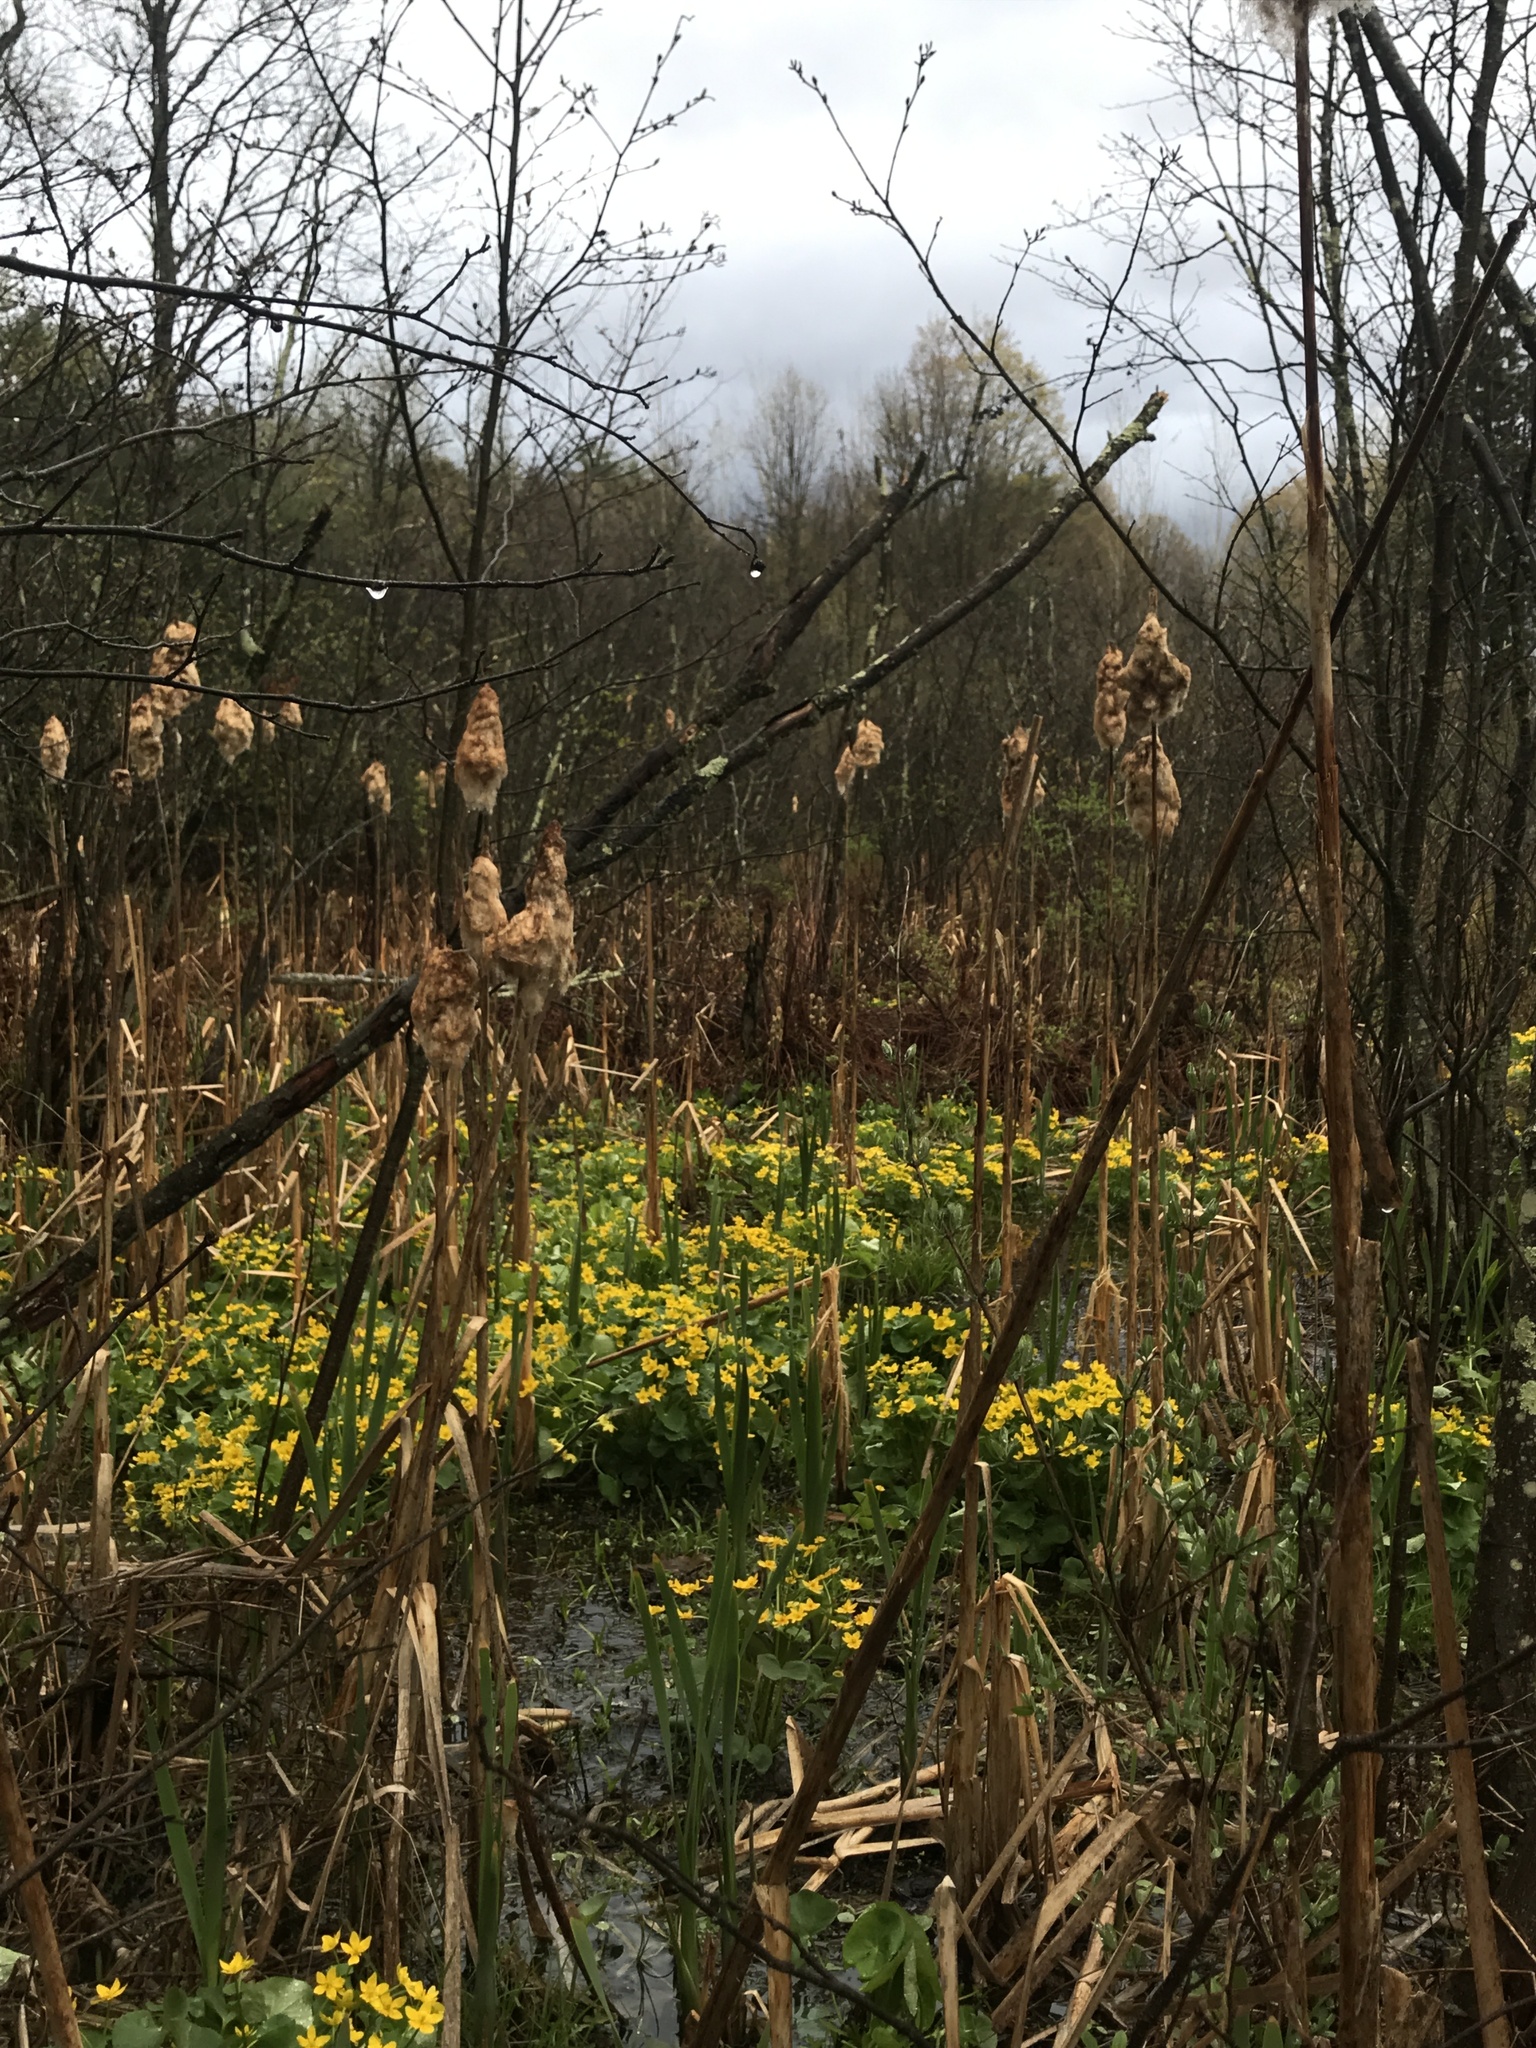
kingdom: Plantae
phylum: Tracheophyta
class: Magnoliopsida
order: Ranunculales
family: Ranunculaceae
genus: Caltha
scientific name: Caltha palustris
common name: Marsh marigold
